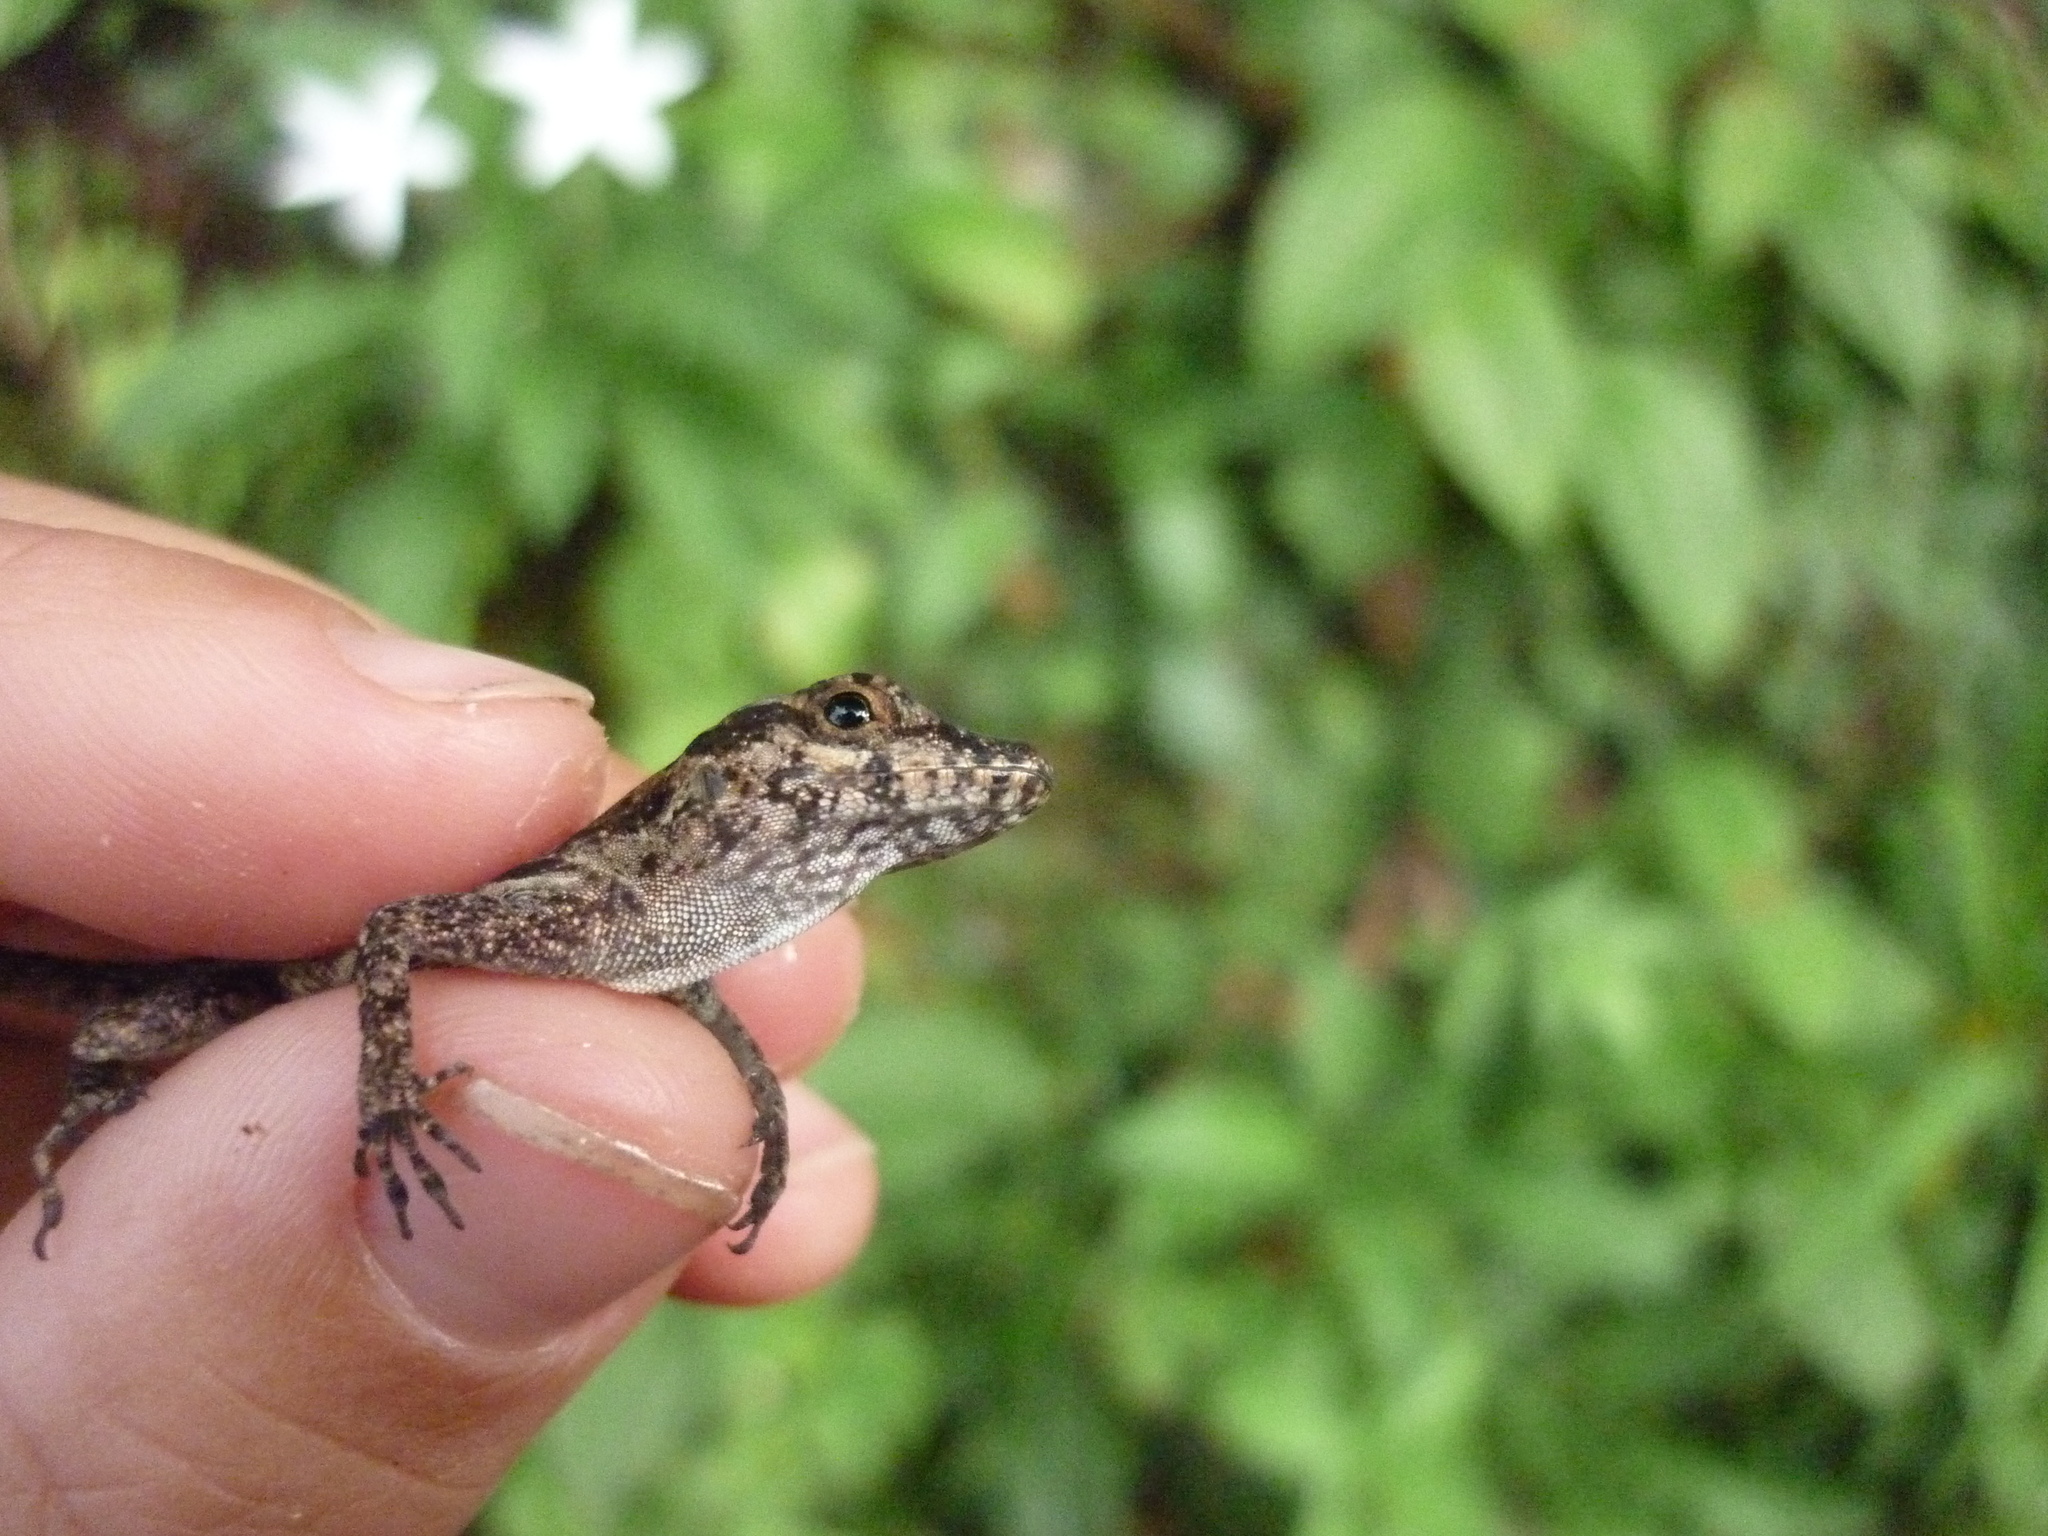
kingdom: Animalia
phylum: Chordata
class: Squamata
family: Dactyloidae
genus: Anolis
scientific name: Anolis cristatellus
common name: Crested anole
